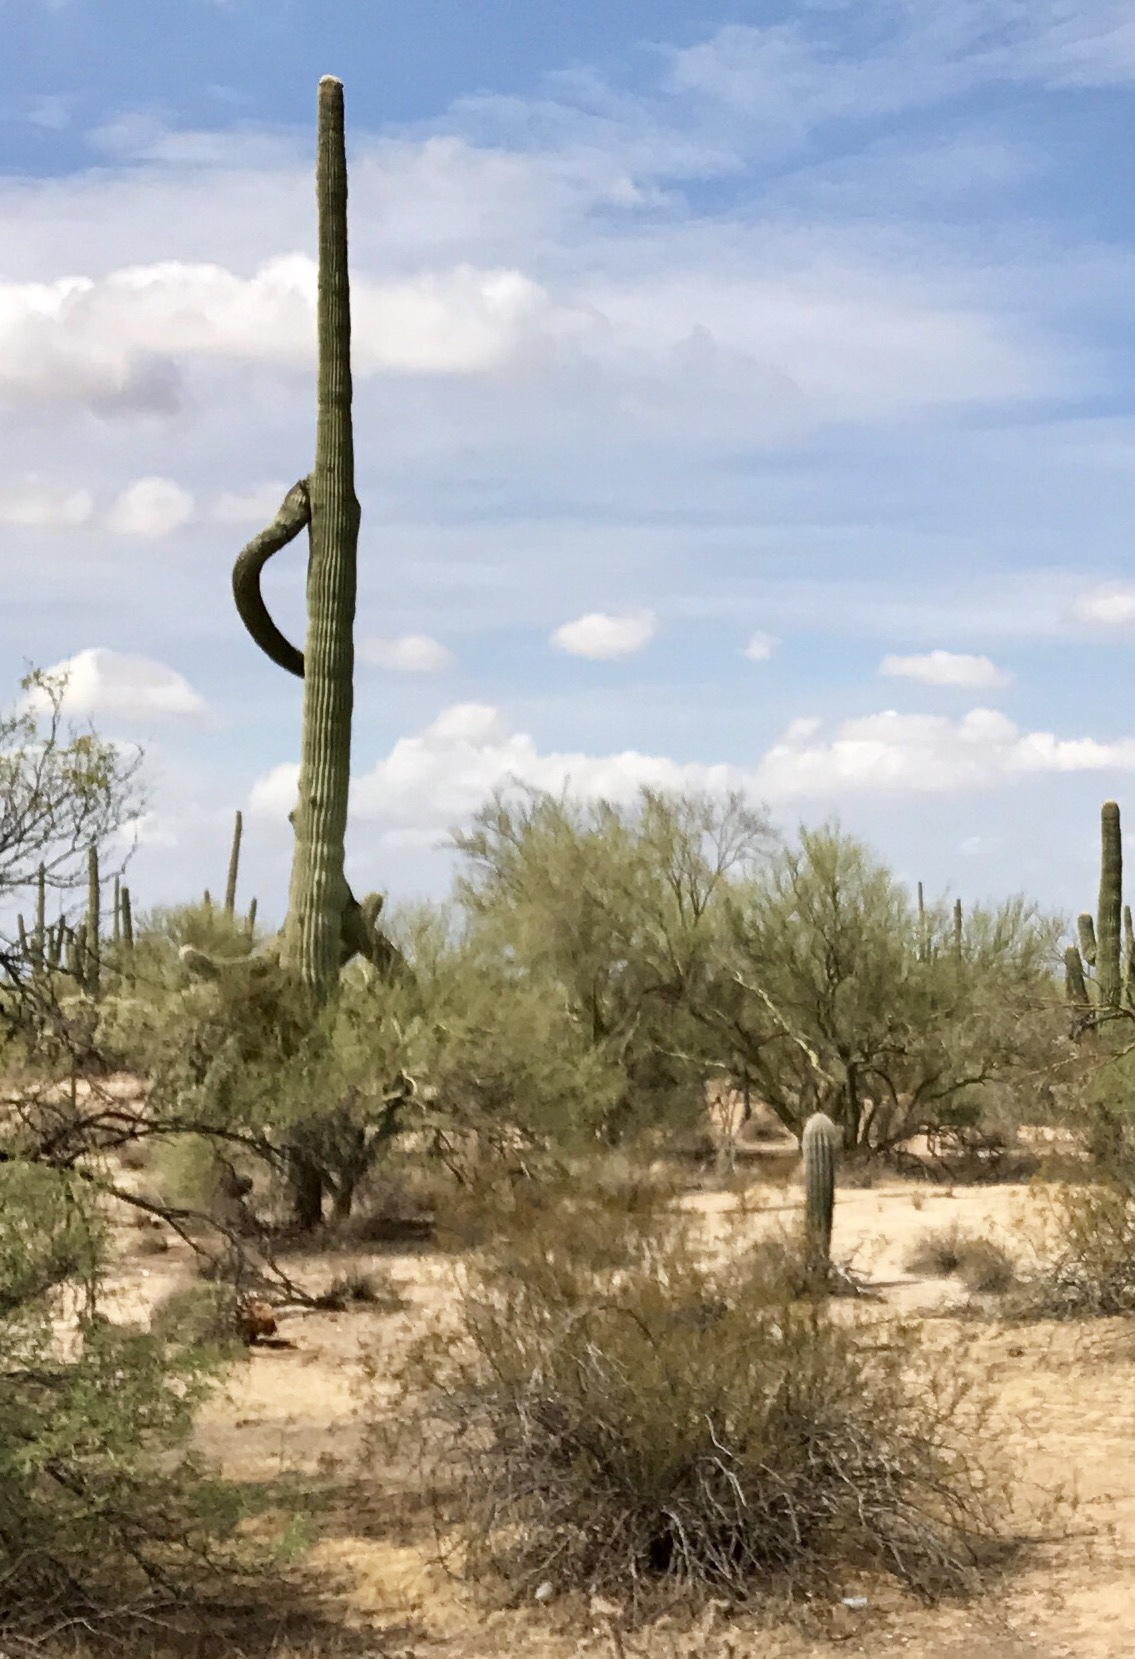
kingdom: Plantae
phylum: Tracheophyta
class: Magnoliopsida
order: Caryophyllales
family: Cactaceae
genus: Carnegiea
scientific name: Carnegiea gigantea
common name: Saguaro
